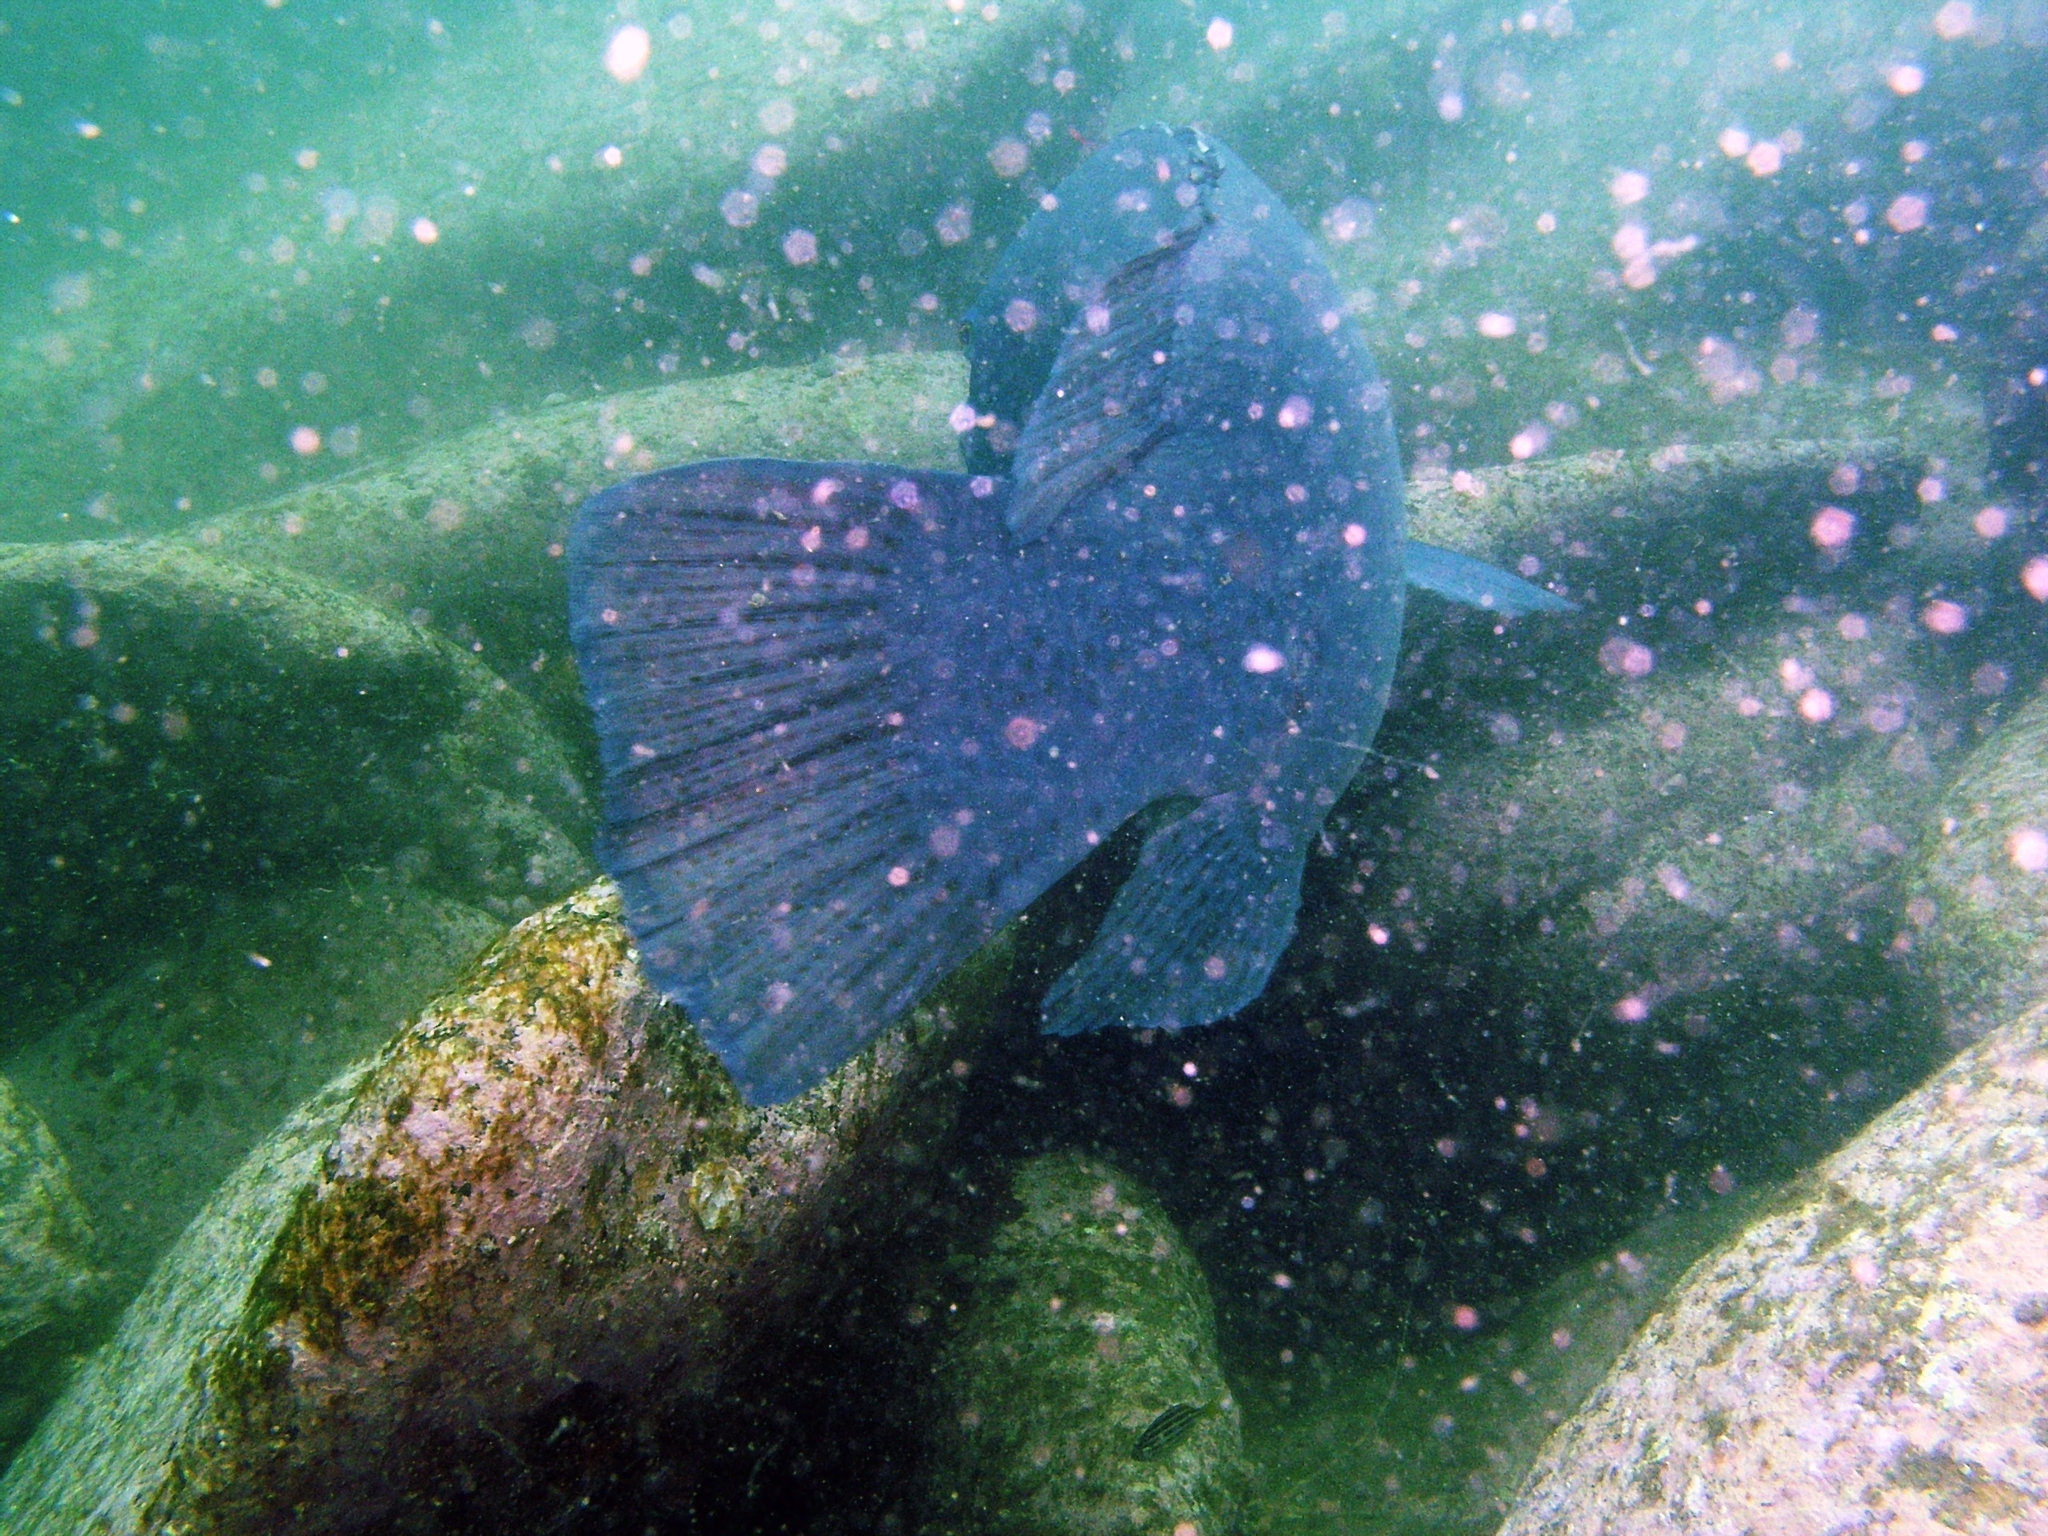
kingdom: Animalia
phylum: Chordata
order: Perciformes
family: Labridae
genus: Achoerodus
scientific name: Achoerodus viridis
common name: Brown groper
